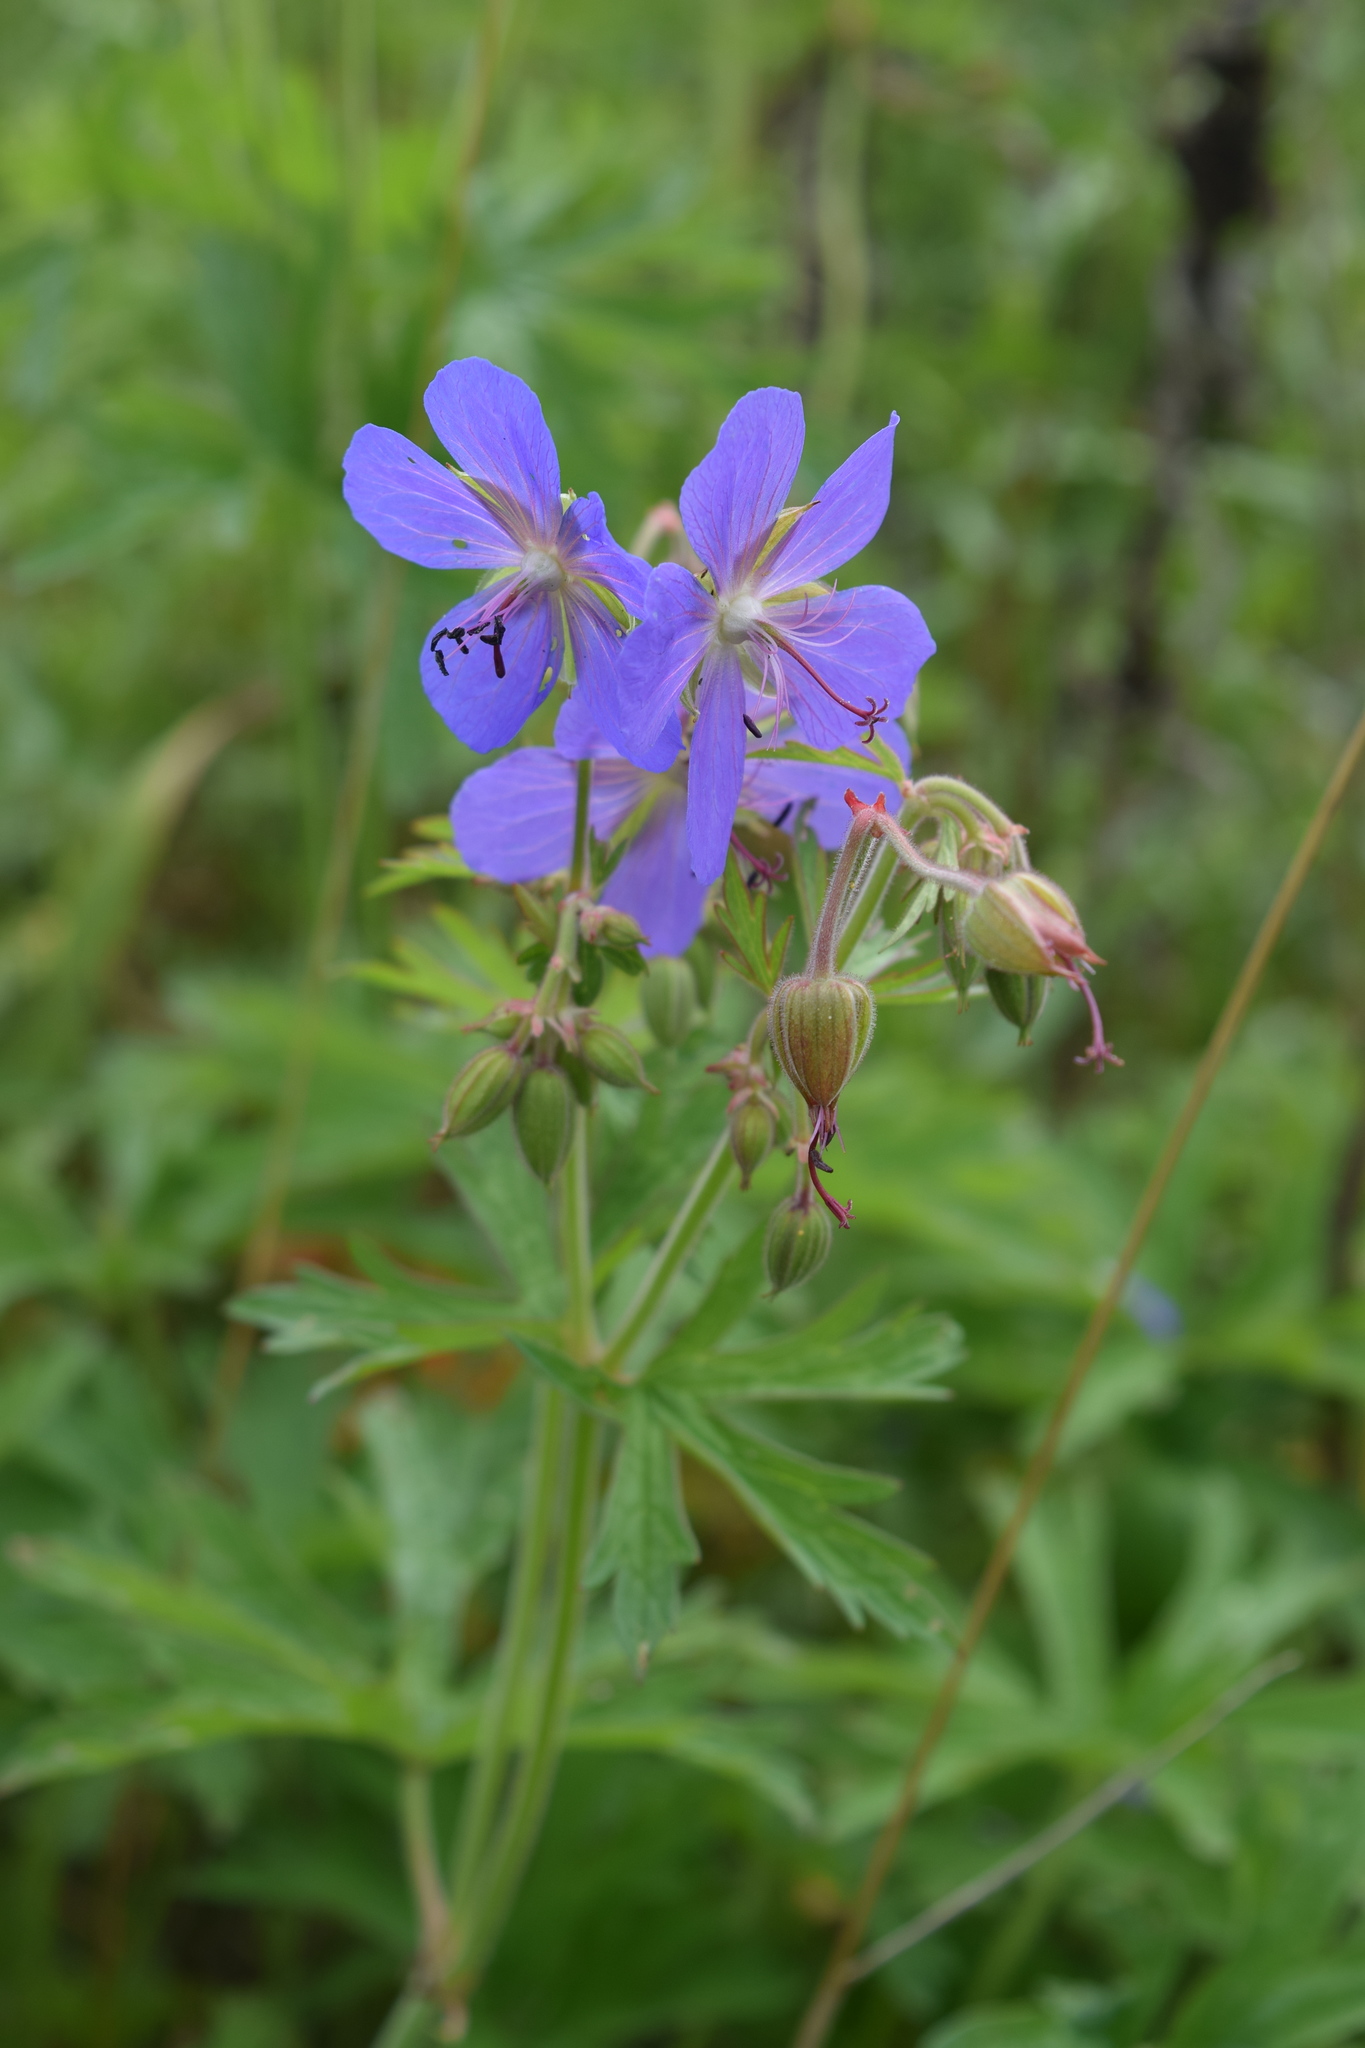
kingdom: Plantae
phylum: Tracheophyta
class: Magnoliopsida
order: Geraniales
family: Geraniaceae
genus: Geranium
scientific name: Geranium pratense
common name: Meadow crane's-bill
